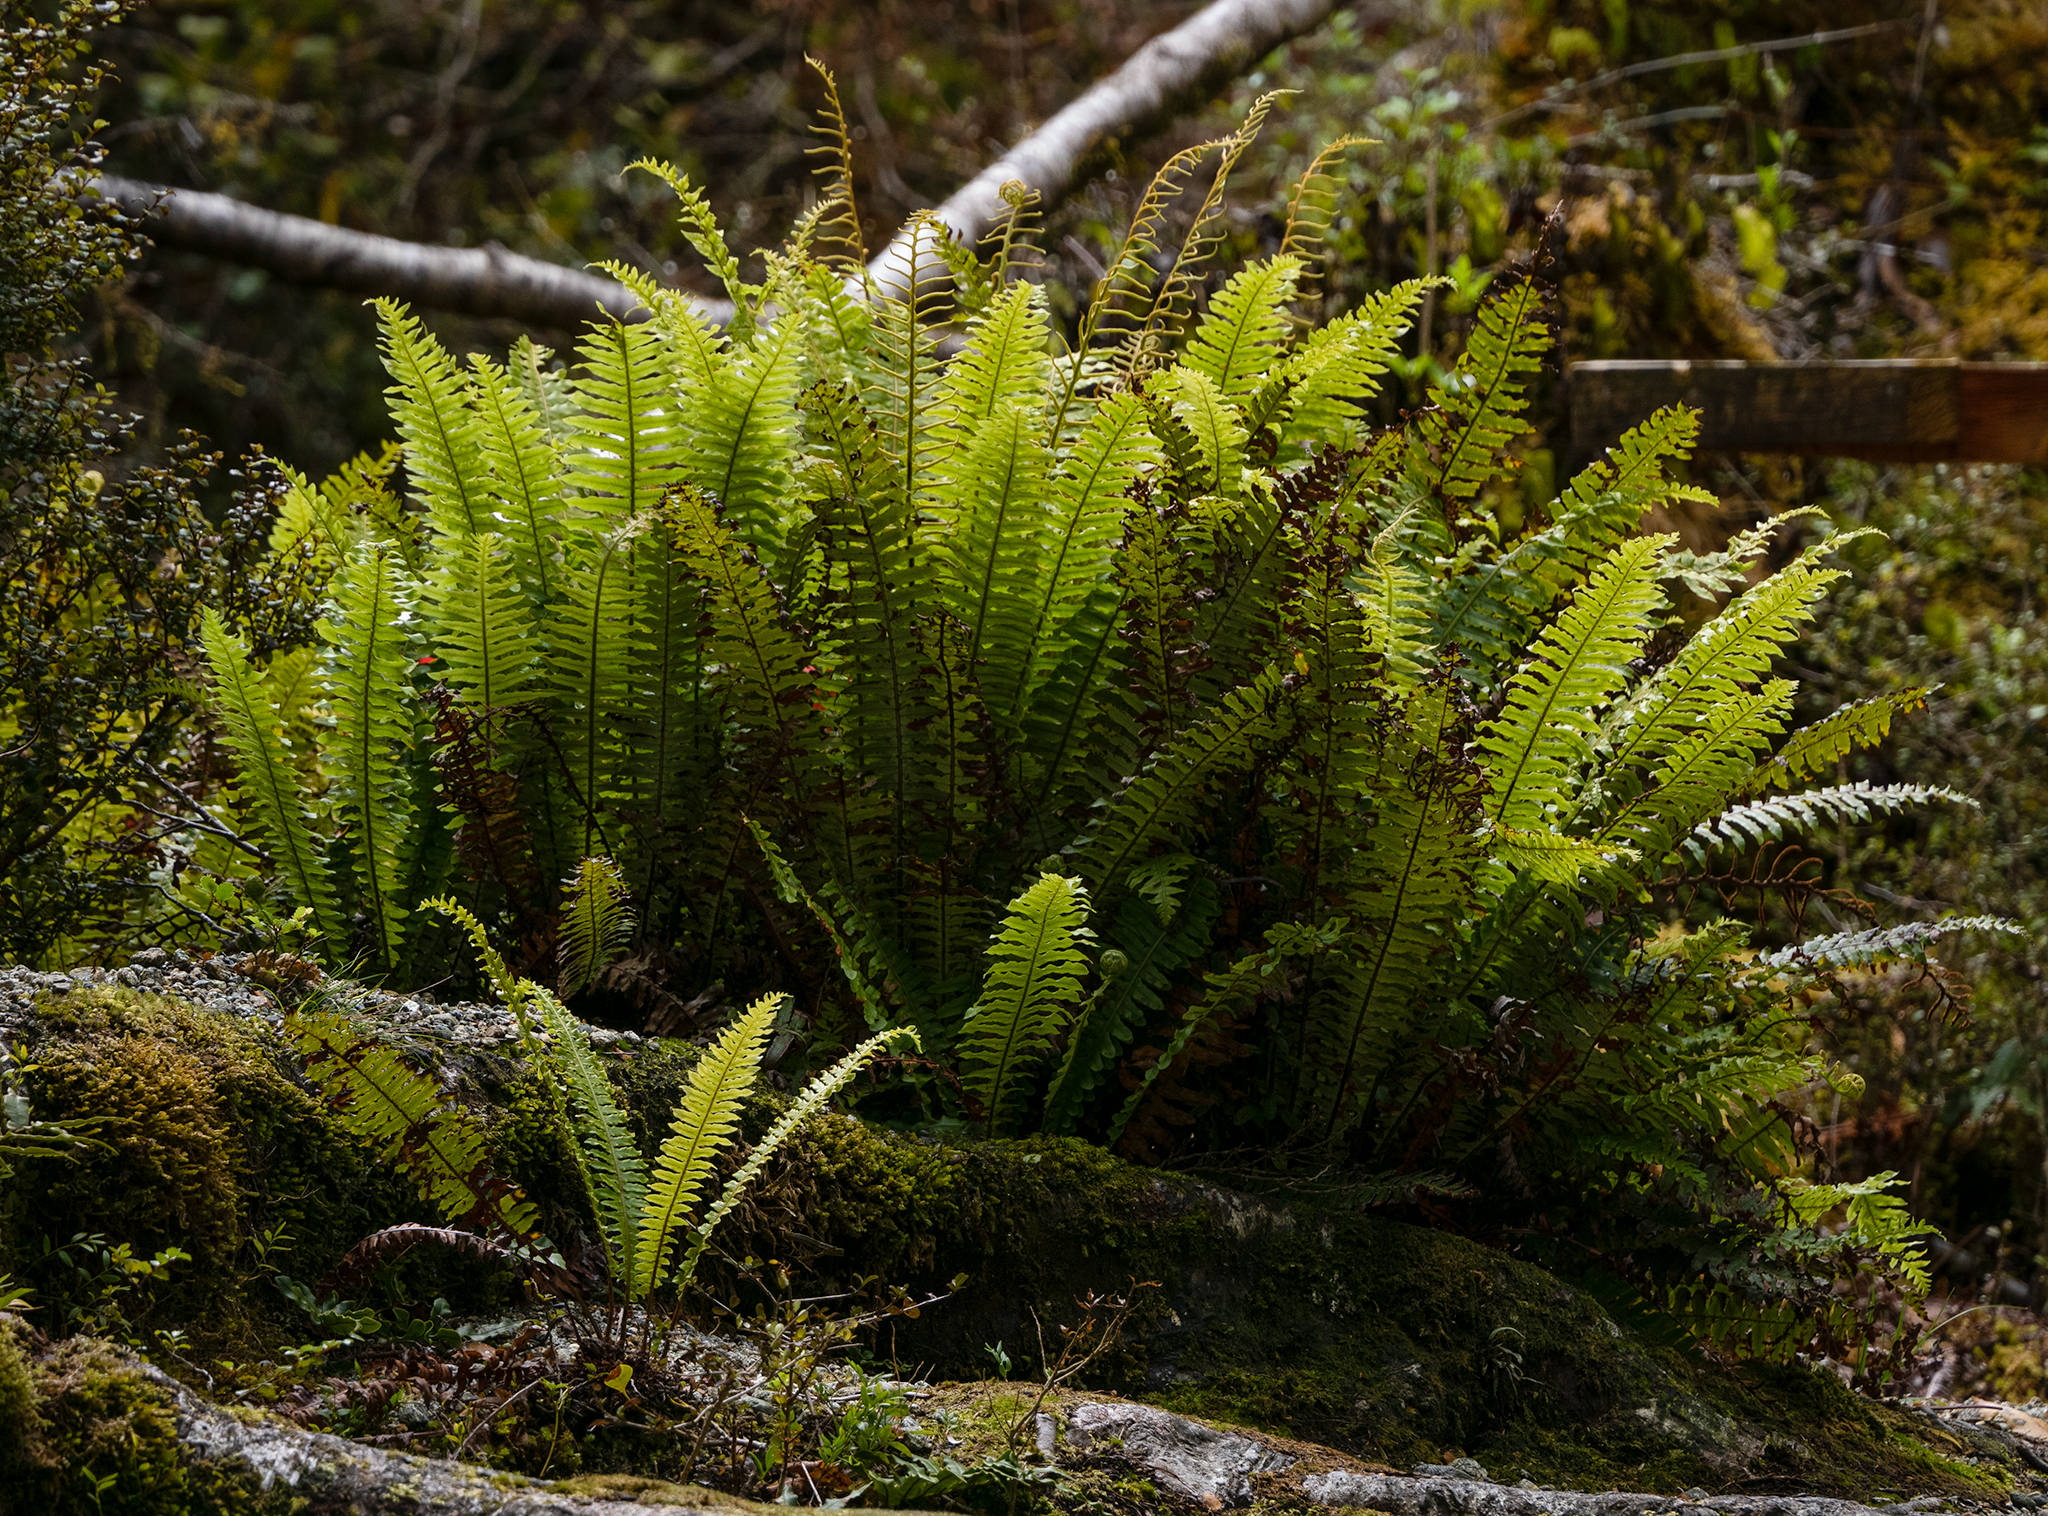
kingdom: Plantae
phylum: Tracheophyta
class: Polypodiopsida
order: Polypodiales
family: Blechnaceae
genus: Lomaria
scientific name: Lomaria discolor
